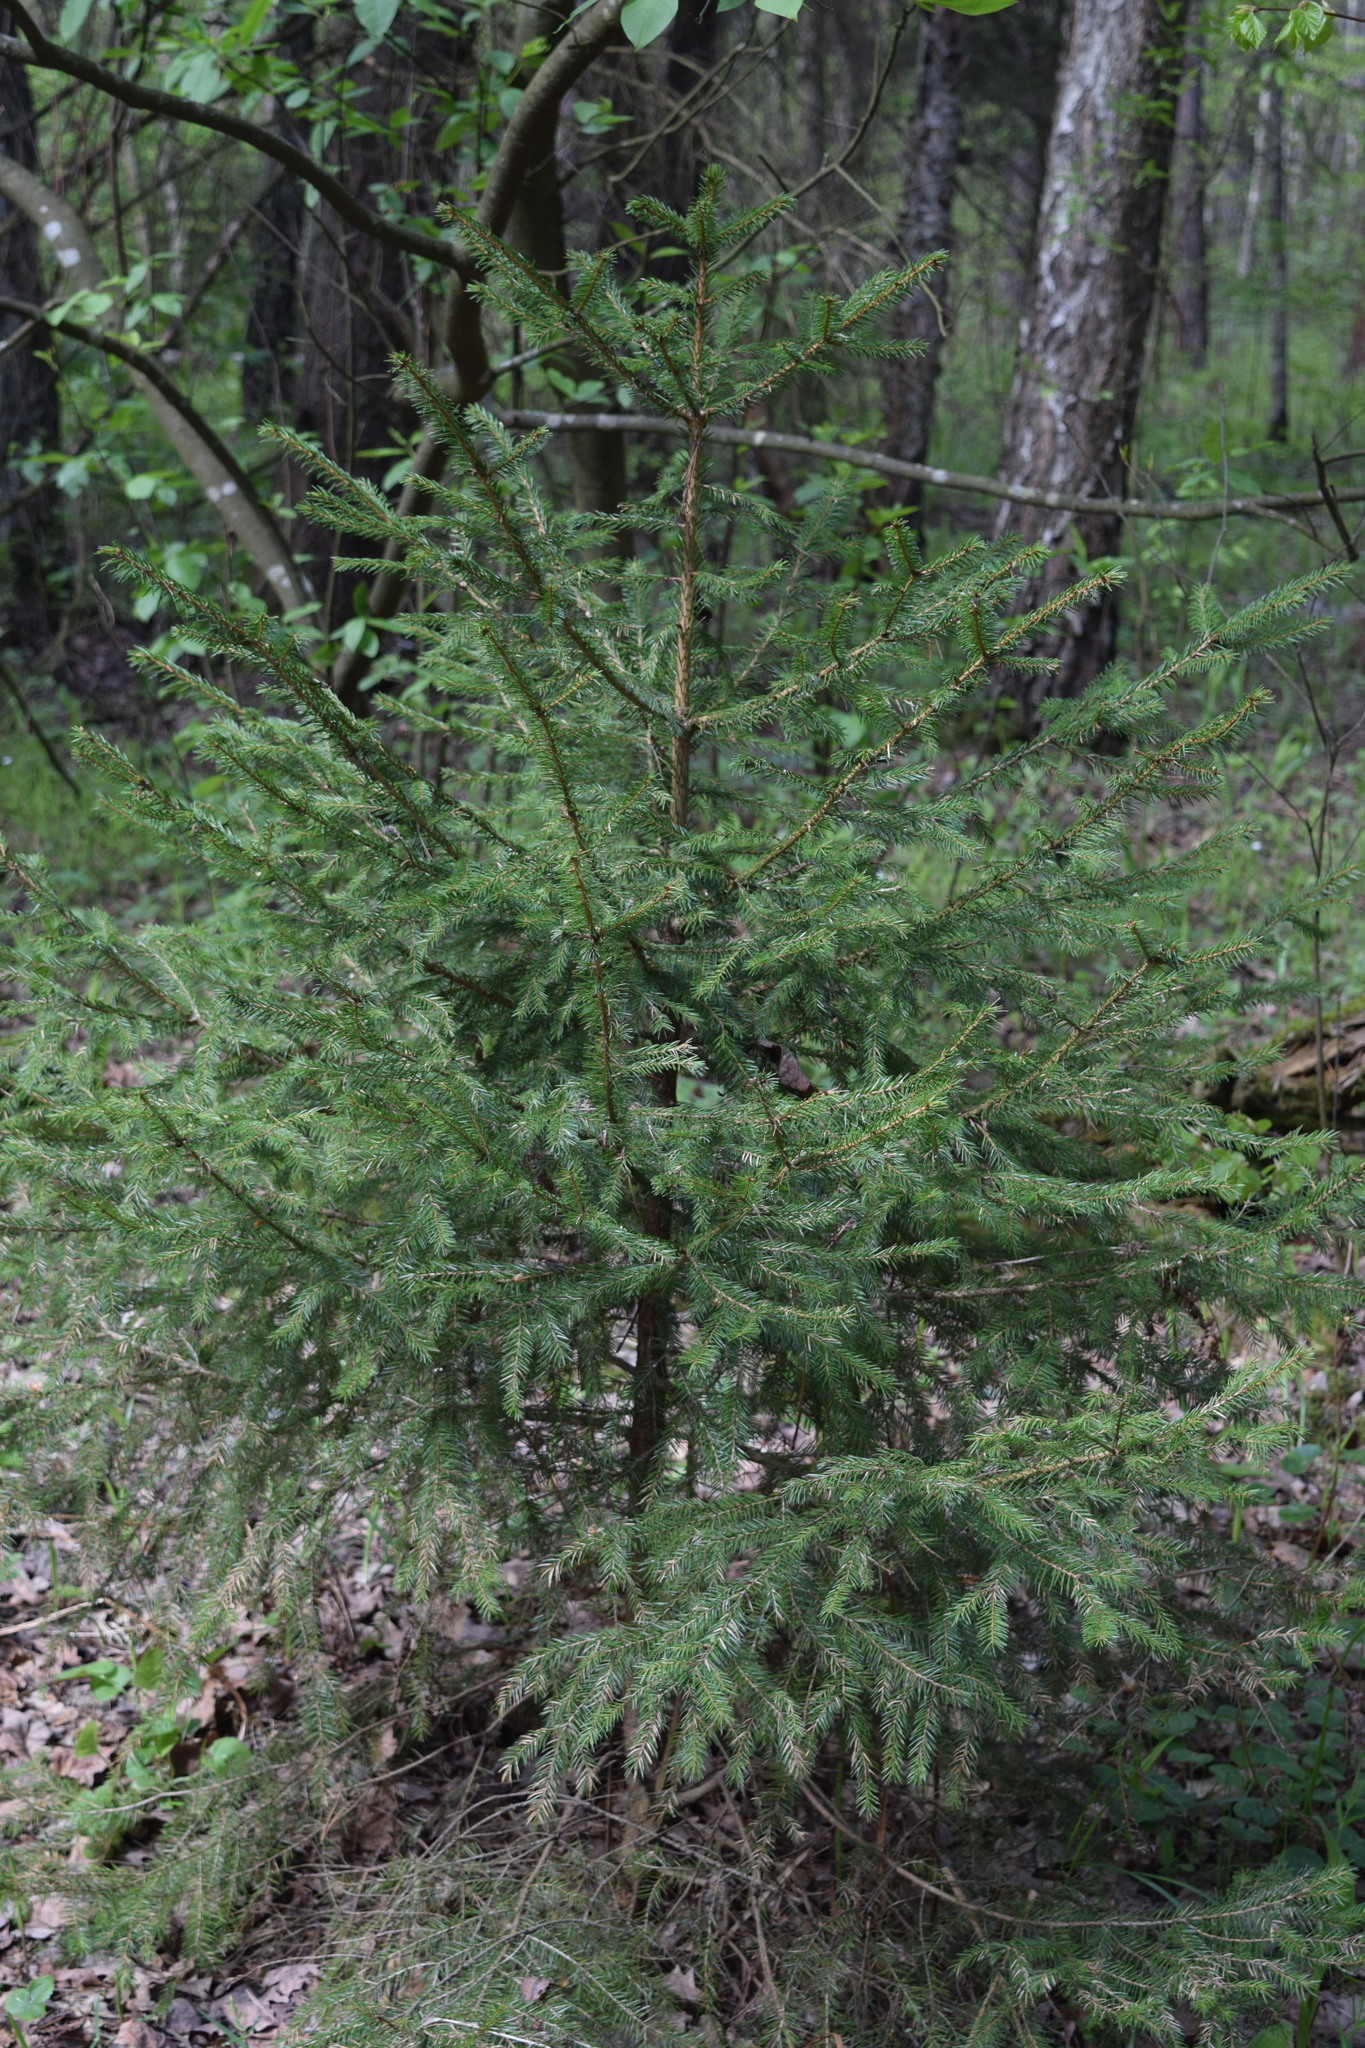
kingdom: Plantae
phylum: Tracheophyta
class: Pinopsida
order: Pinales
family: Pinaceae
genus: Picea
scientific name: Picea abies
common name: Norway spruce
